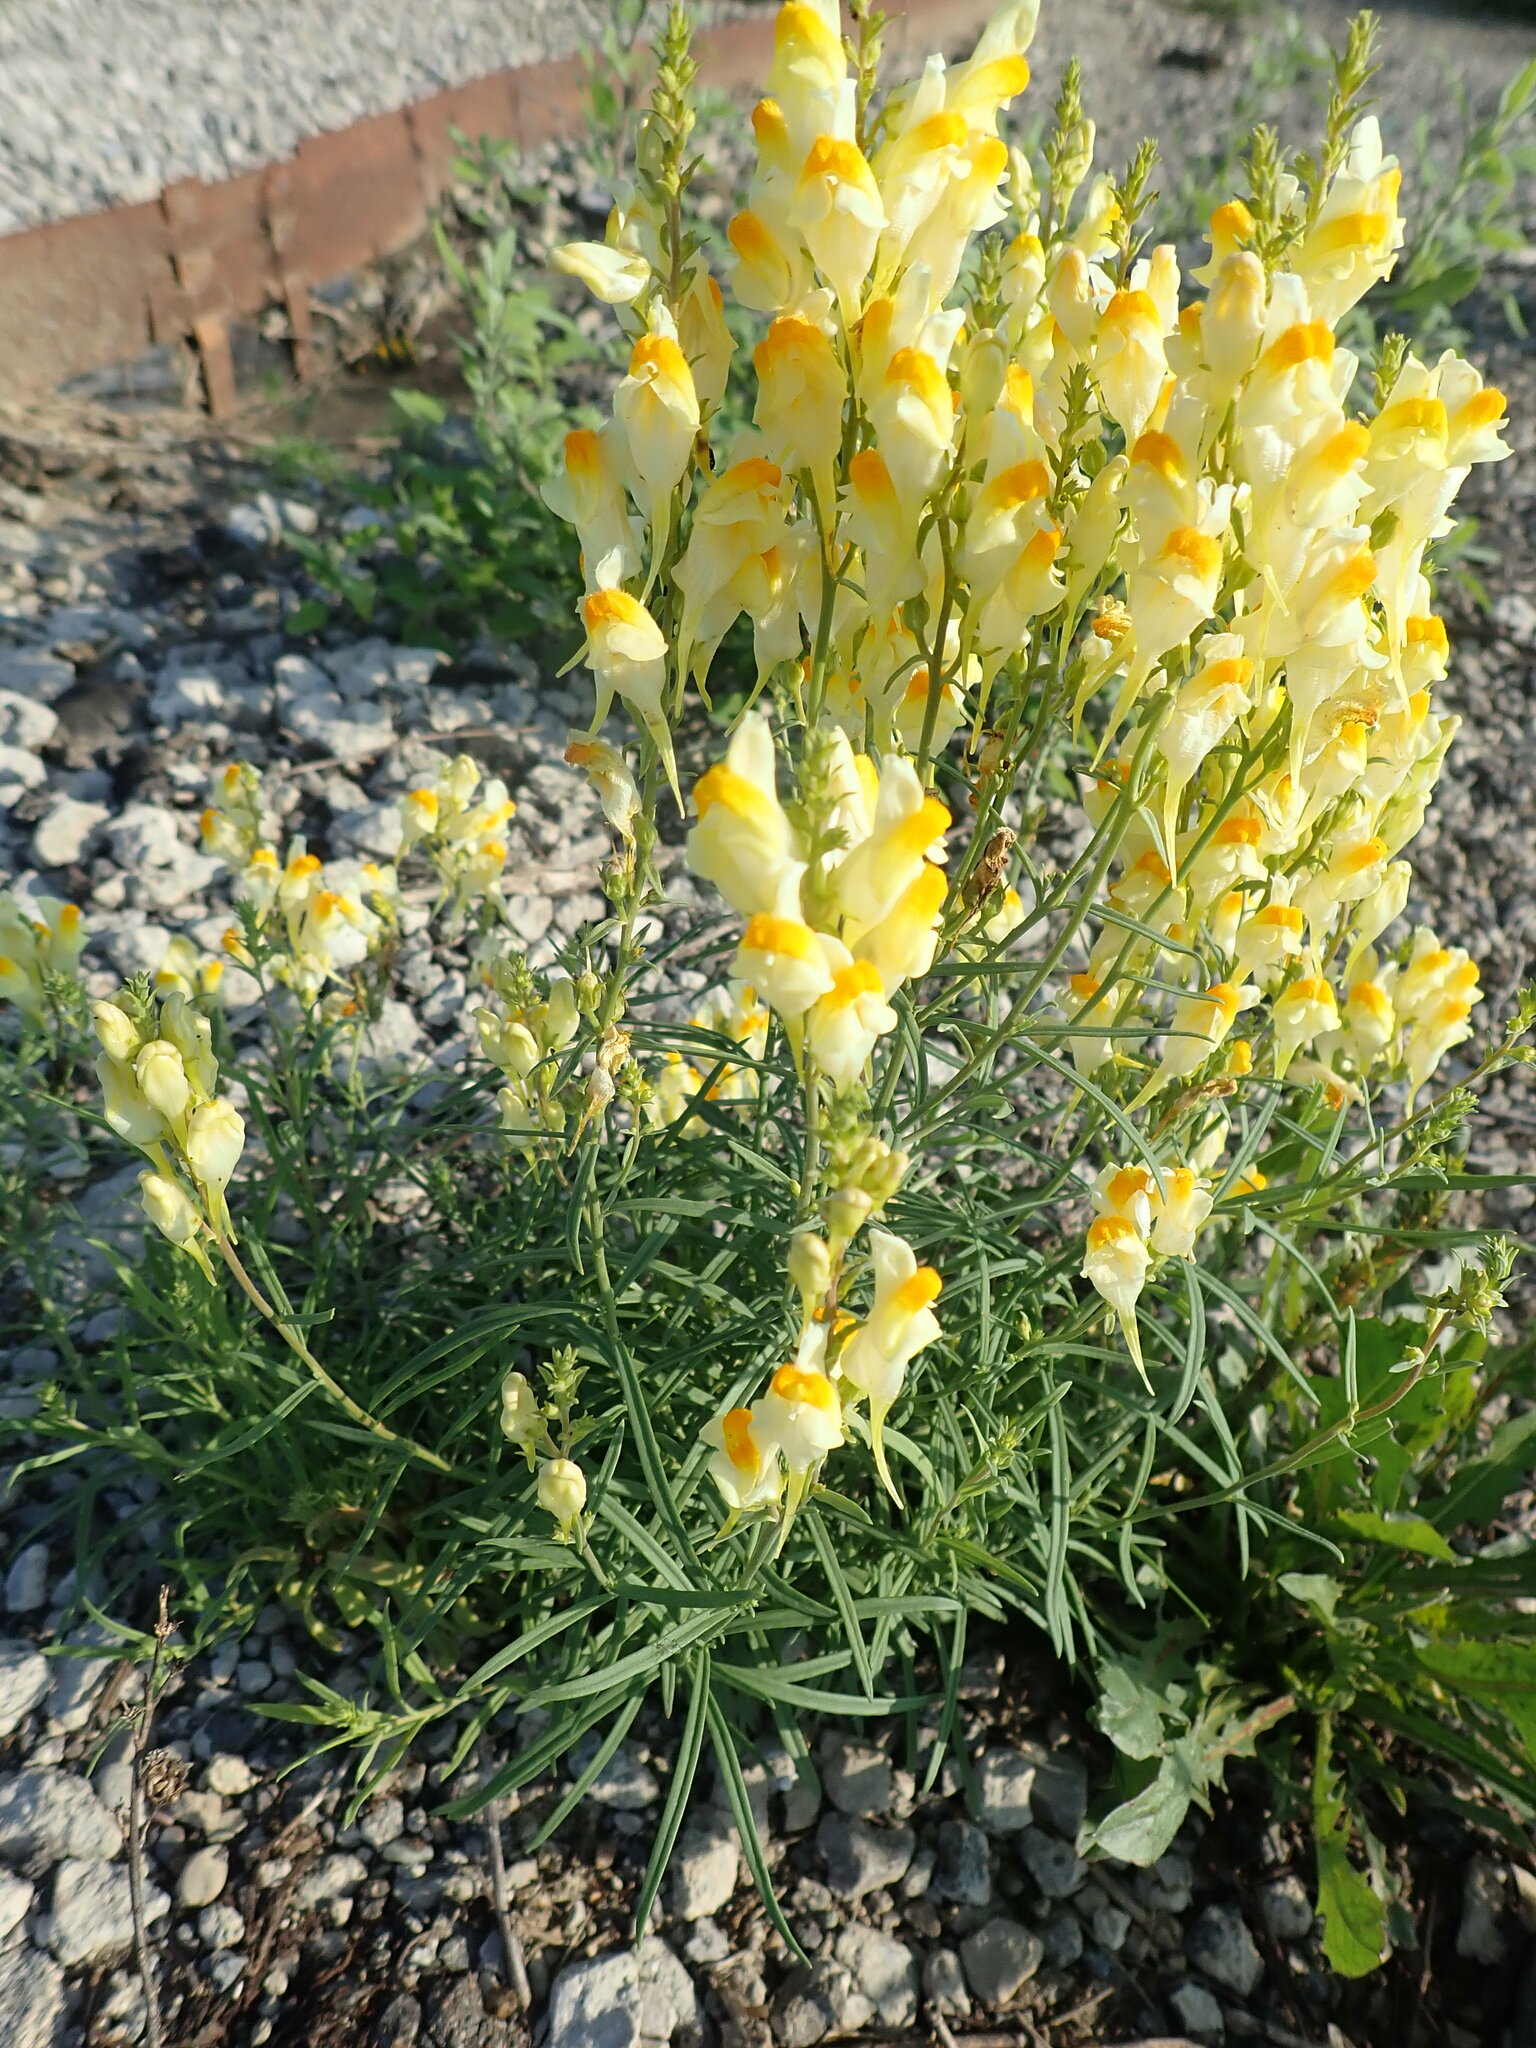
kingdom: Plantae
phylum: Tracheophyta
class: Magnoliopsida
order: Lamiales
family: Plantaginaceae
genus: Linaria
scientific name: Linaria vulgaris
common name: Butter and eggs
